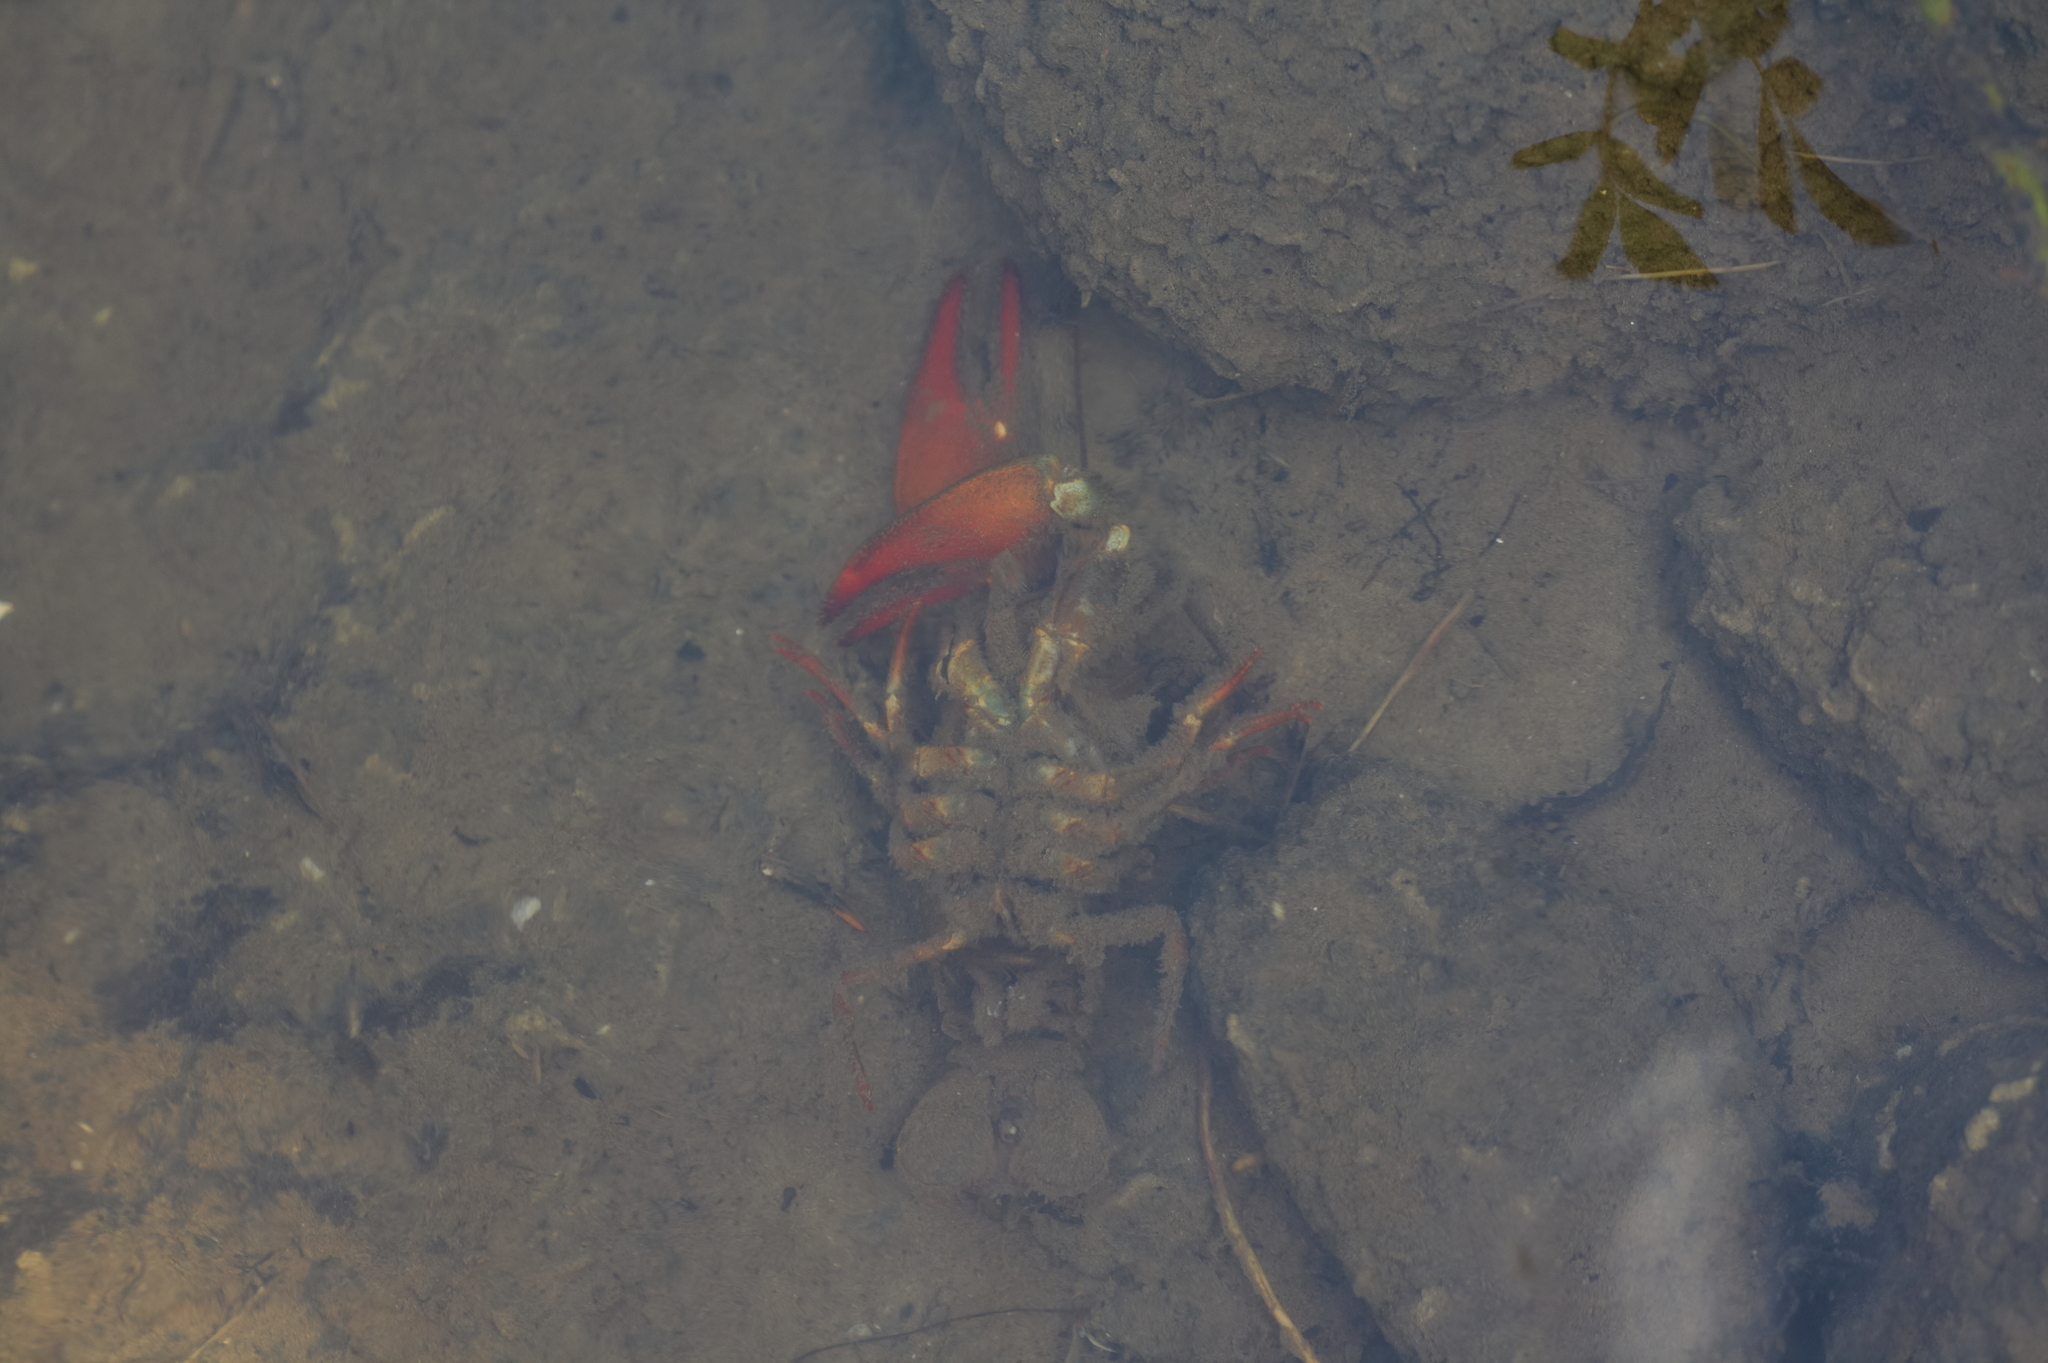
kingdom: Animalia
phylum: Arthropoda
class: Malacostraca
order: Decapoda
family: Astacidae
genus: Pacifastacus
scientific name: Pacifastacus leniusculus
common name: Signal crayfish
